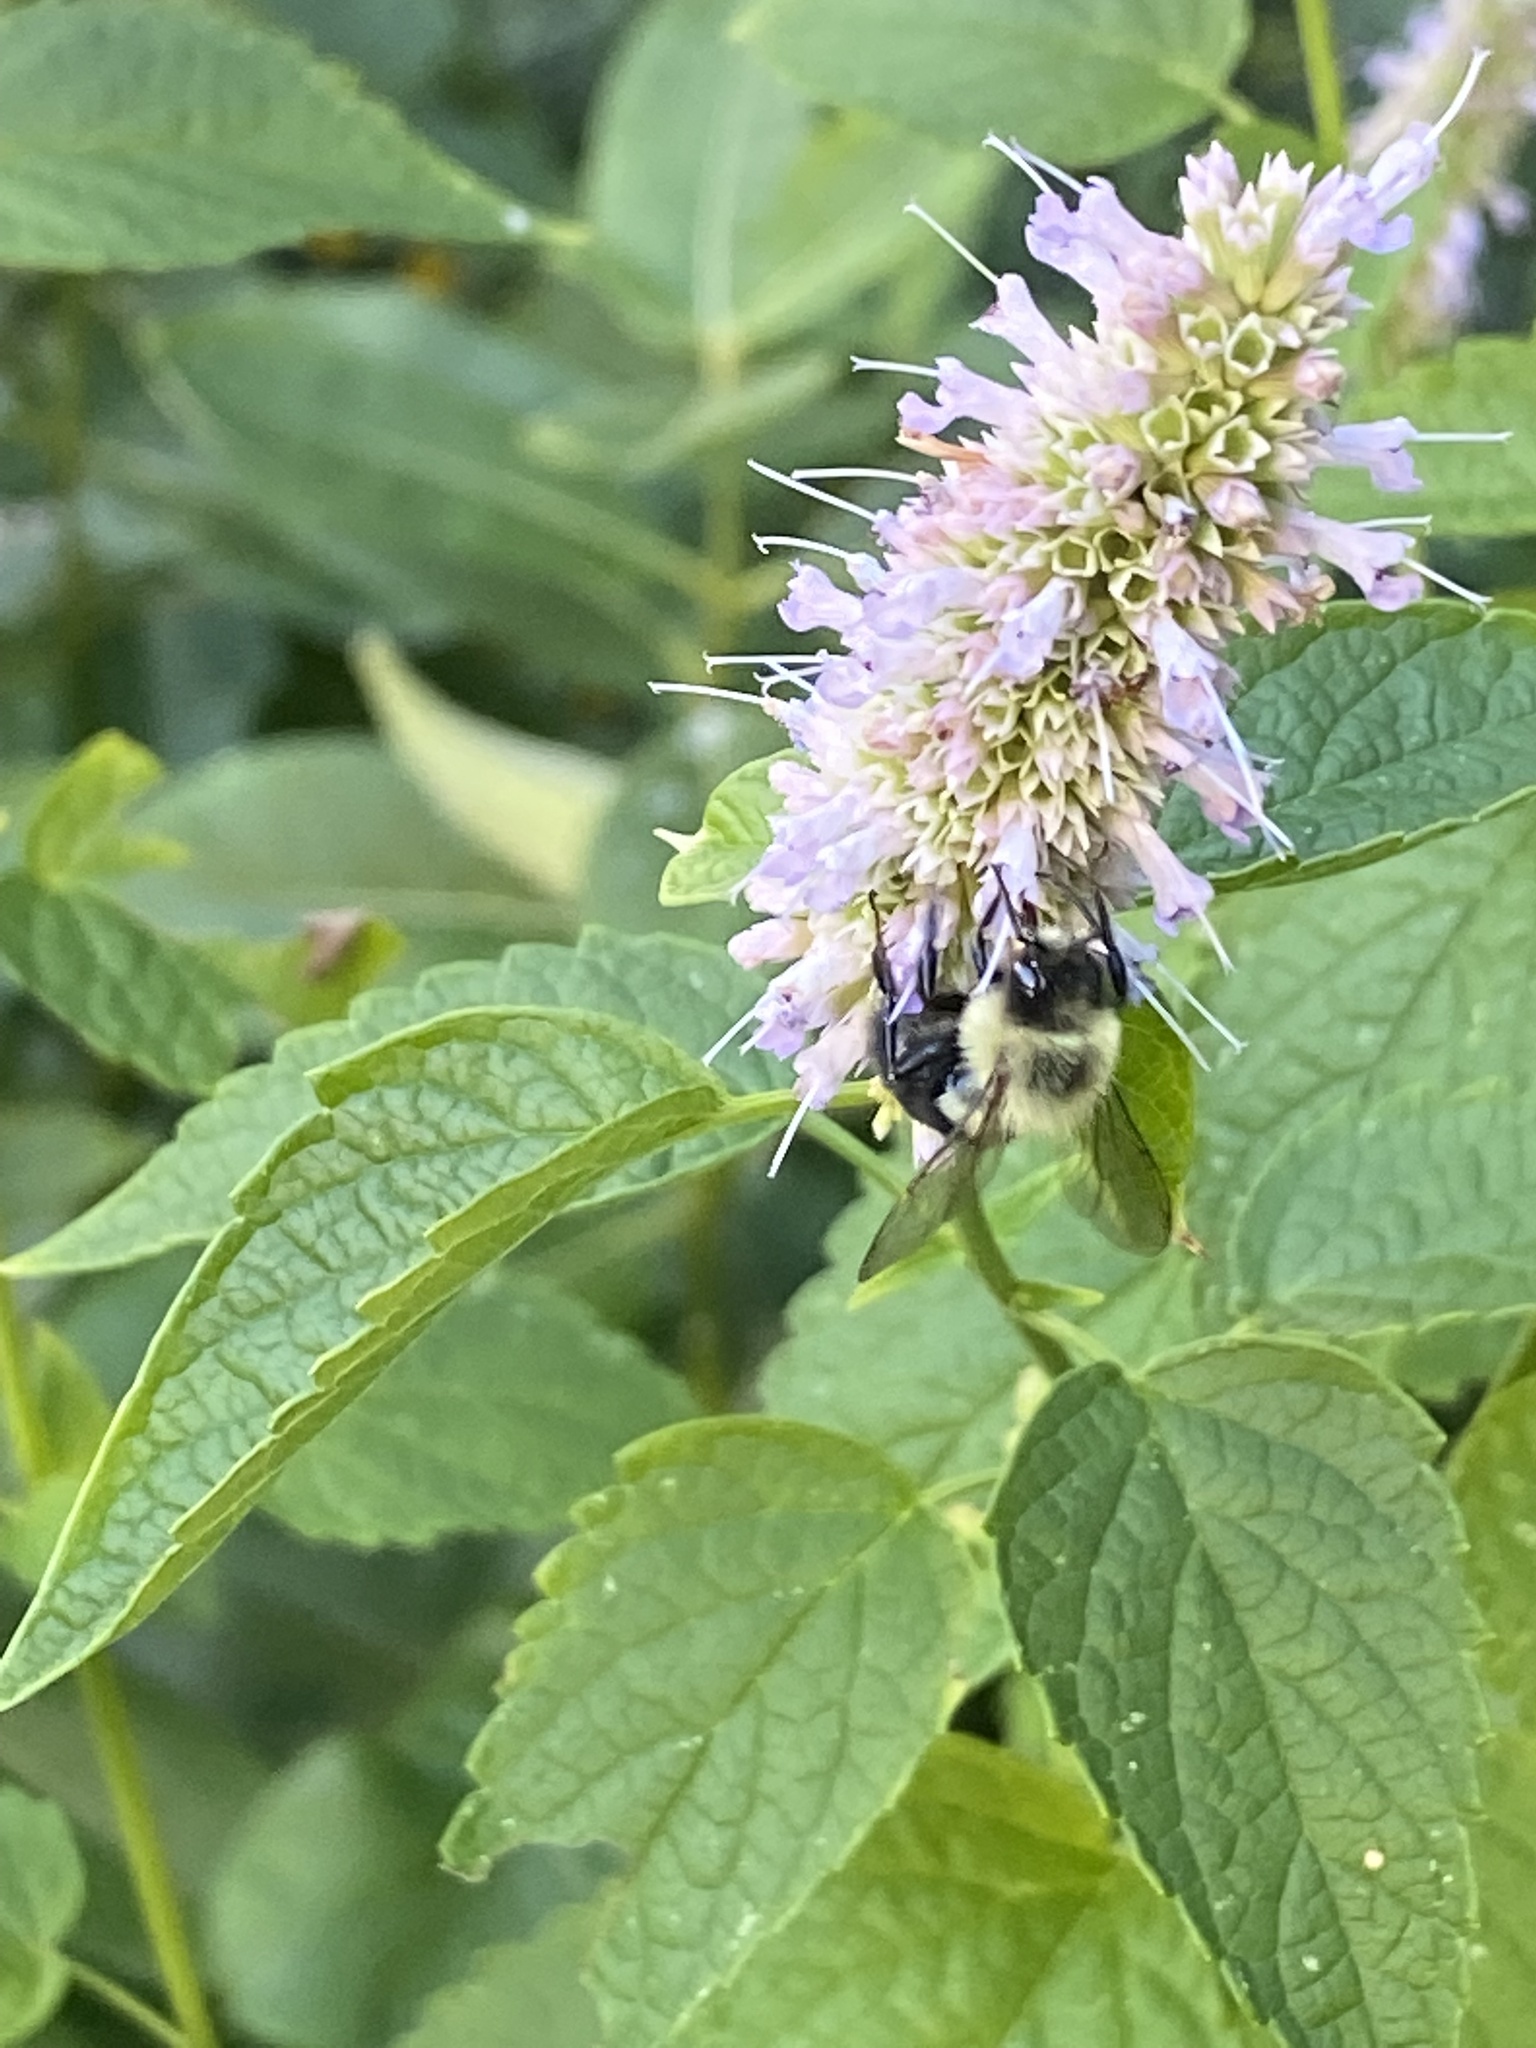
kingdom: Animalia
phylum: Arthropoda
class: Insecta
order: Hymenoptera
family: Apidae
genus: Bombus
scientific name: Bombus impatiens
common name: Common eastern bumble bee
